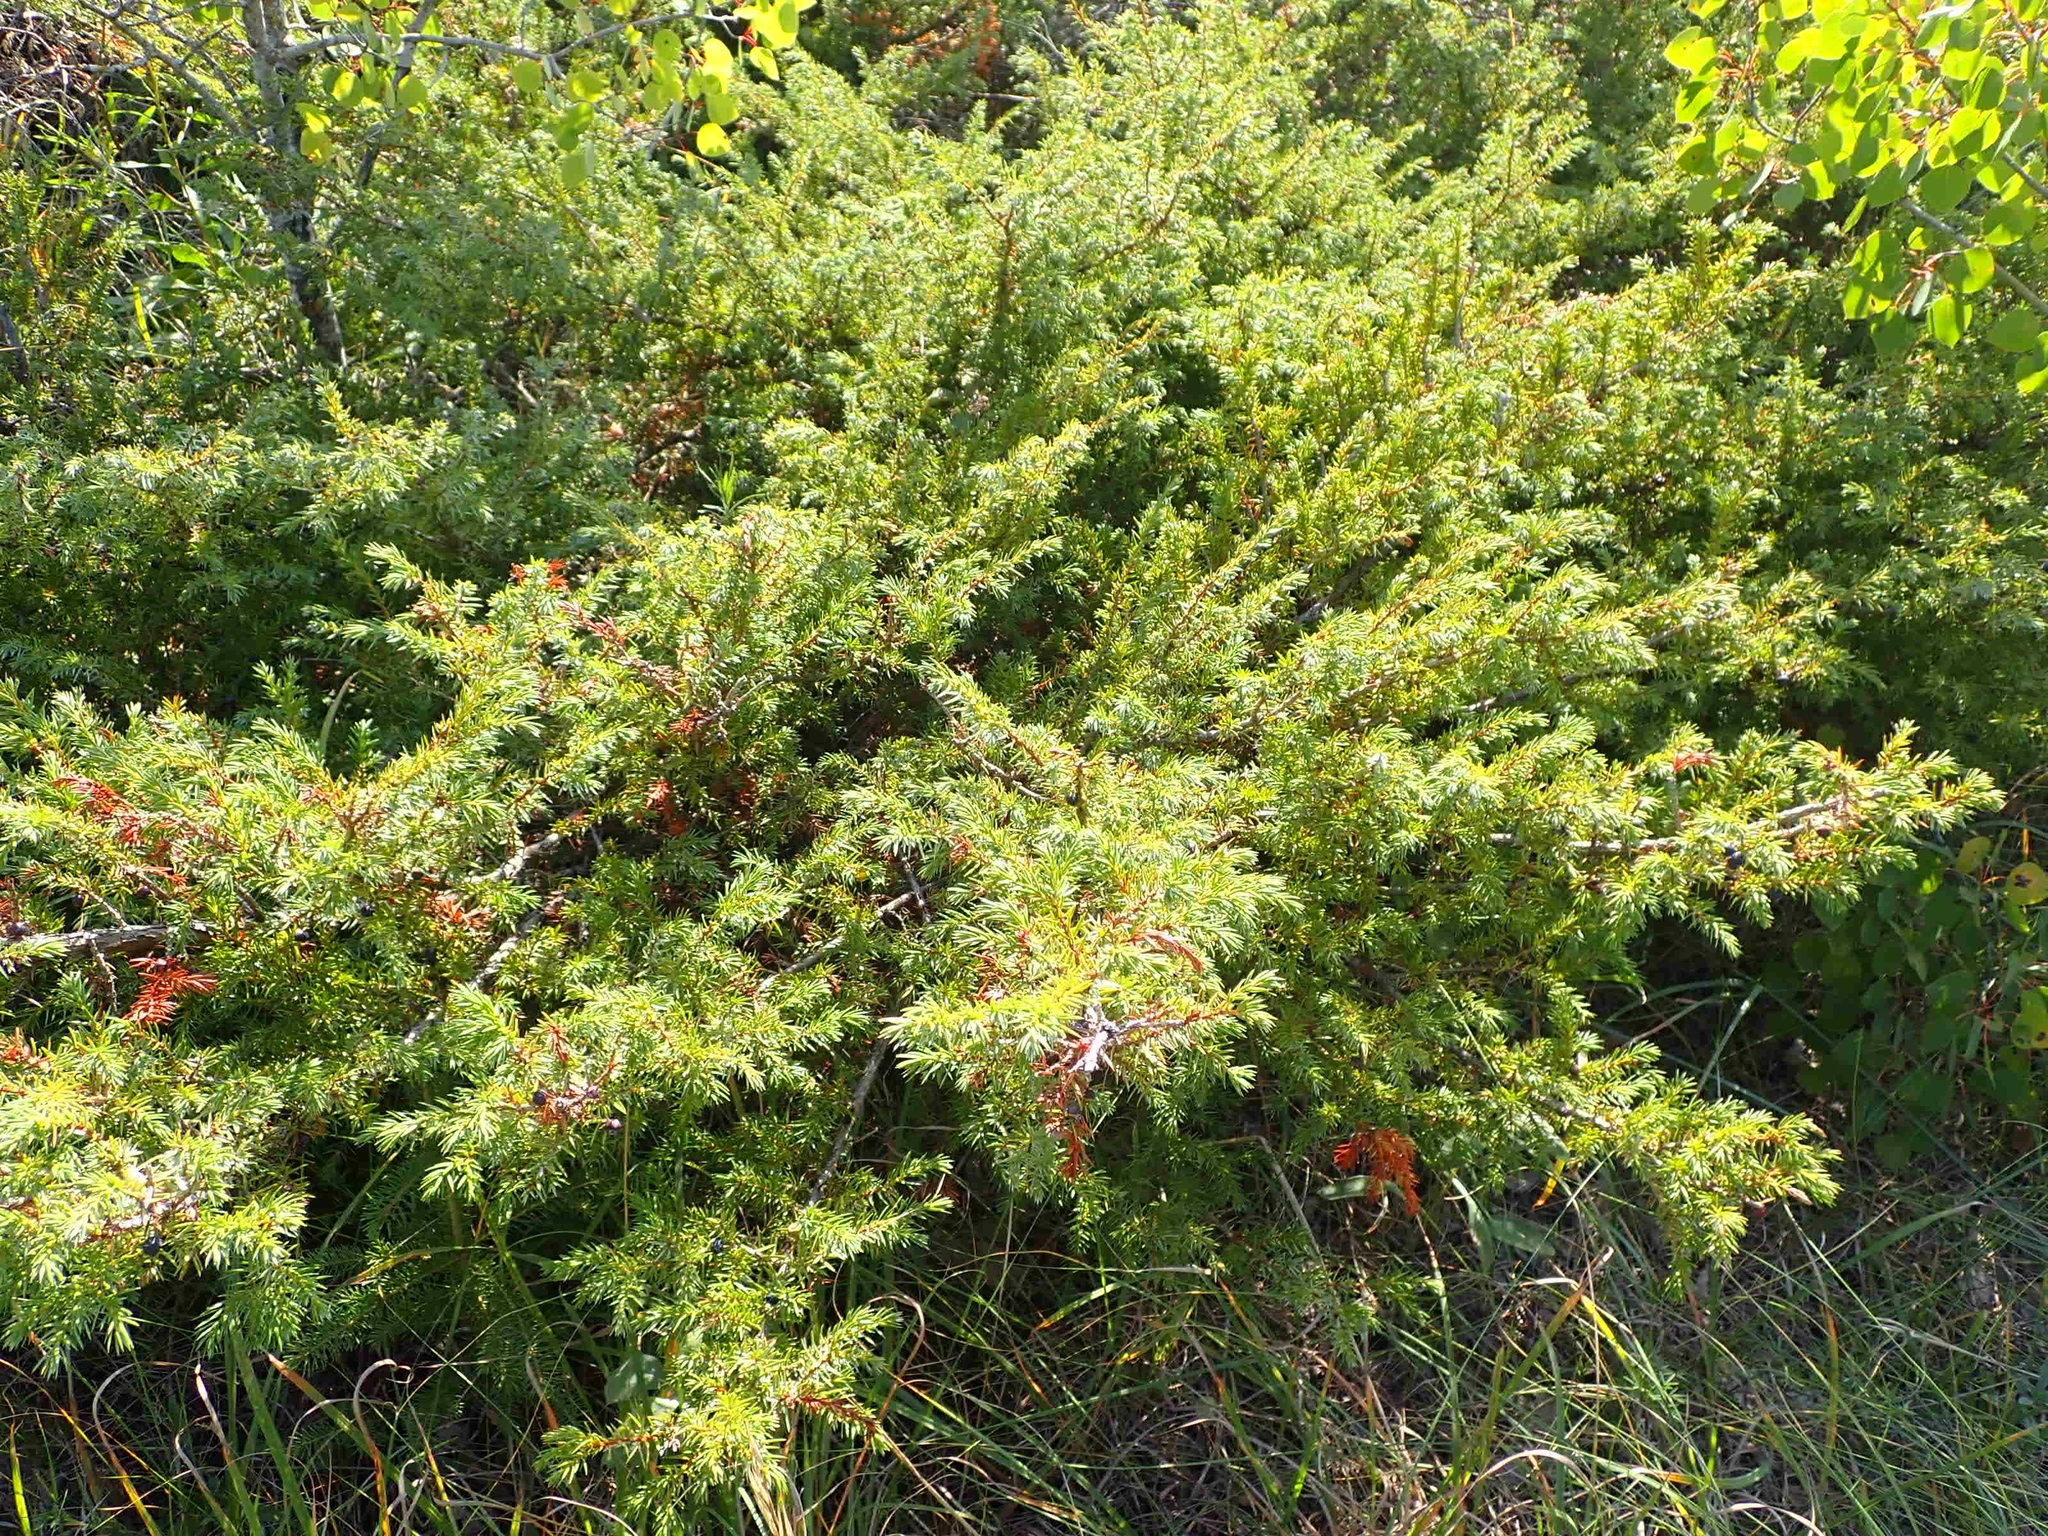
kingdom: Plantae
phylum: Tracheophyta
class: Pinopsida
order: Pinales
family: Cupressaceae
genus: Juniperus
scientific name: Juniperus communis
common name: Common juniper
